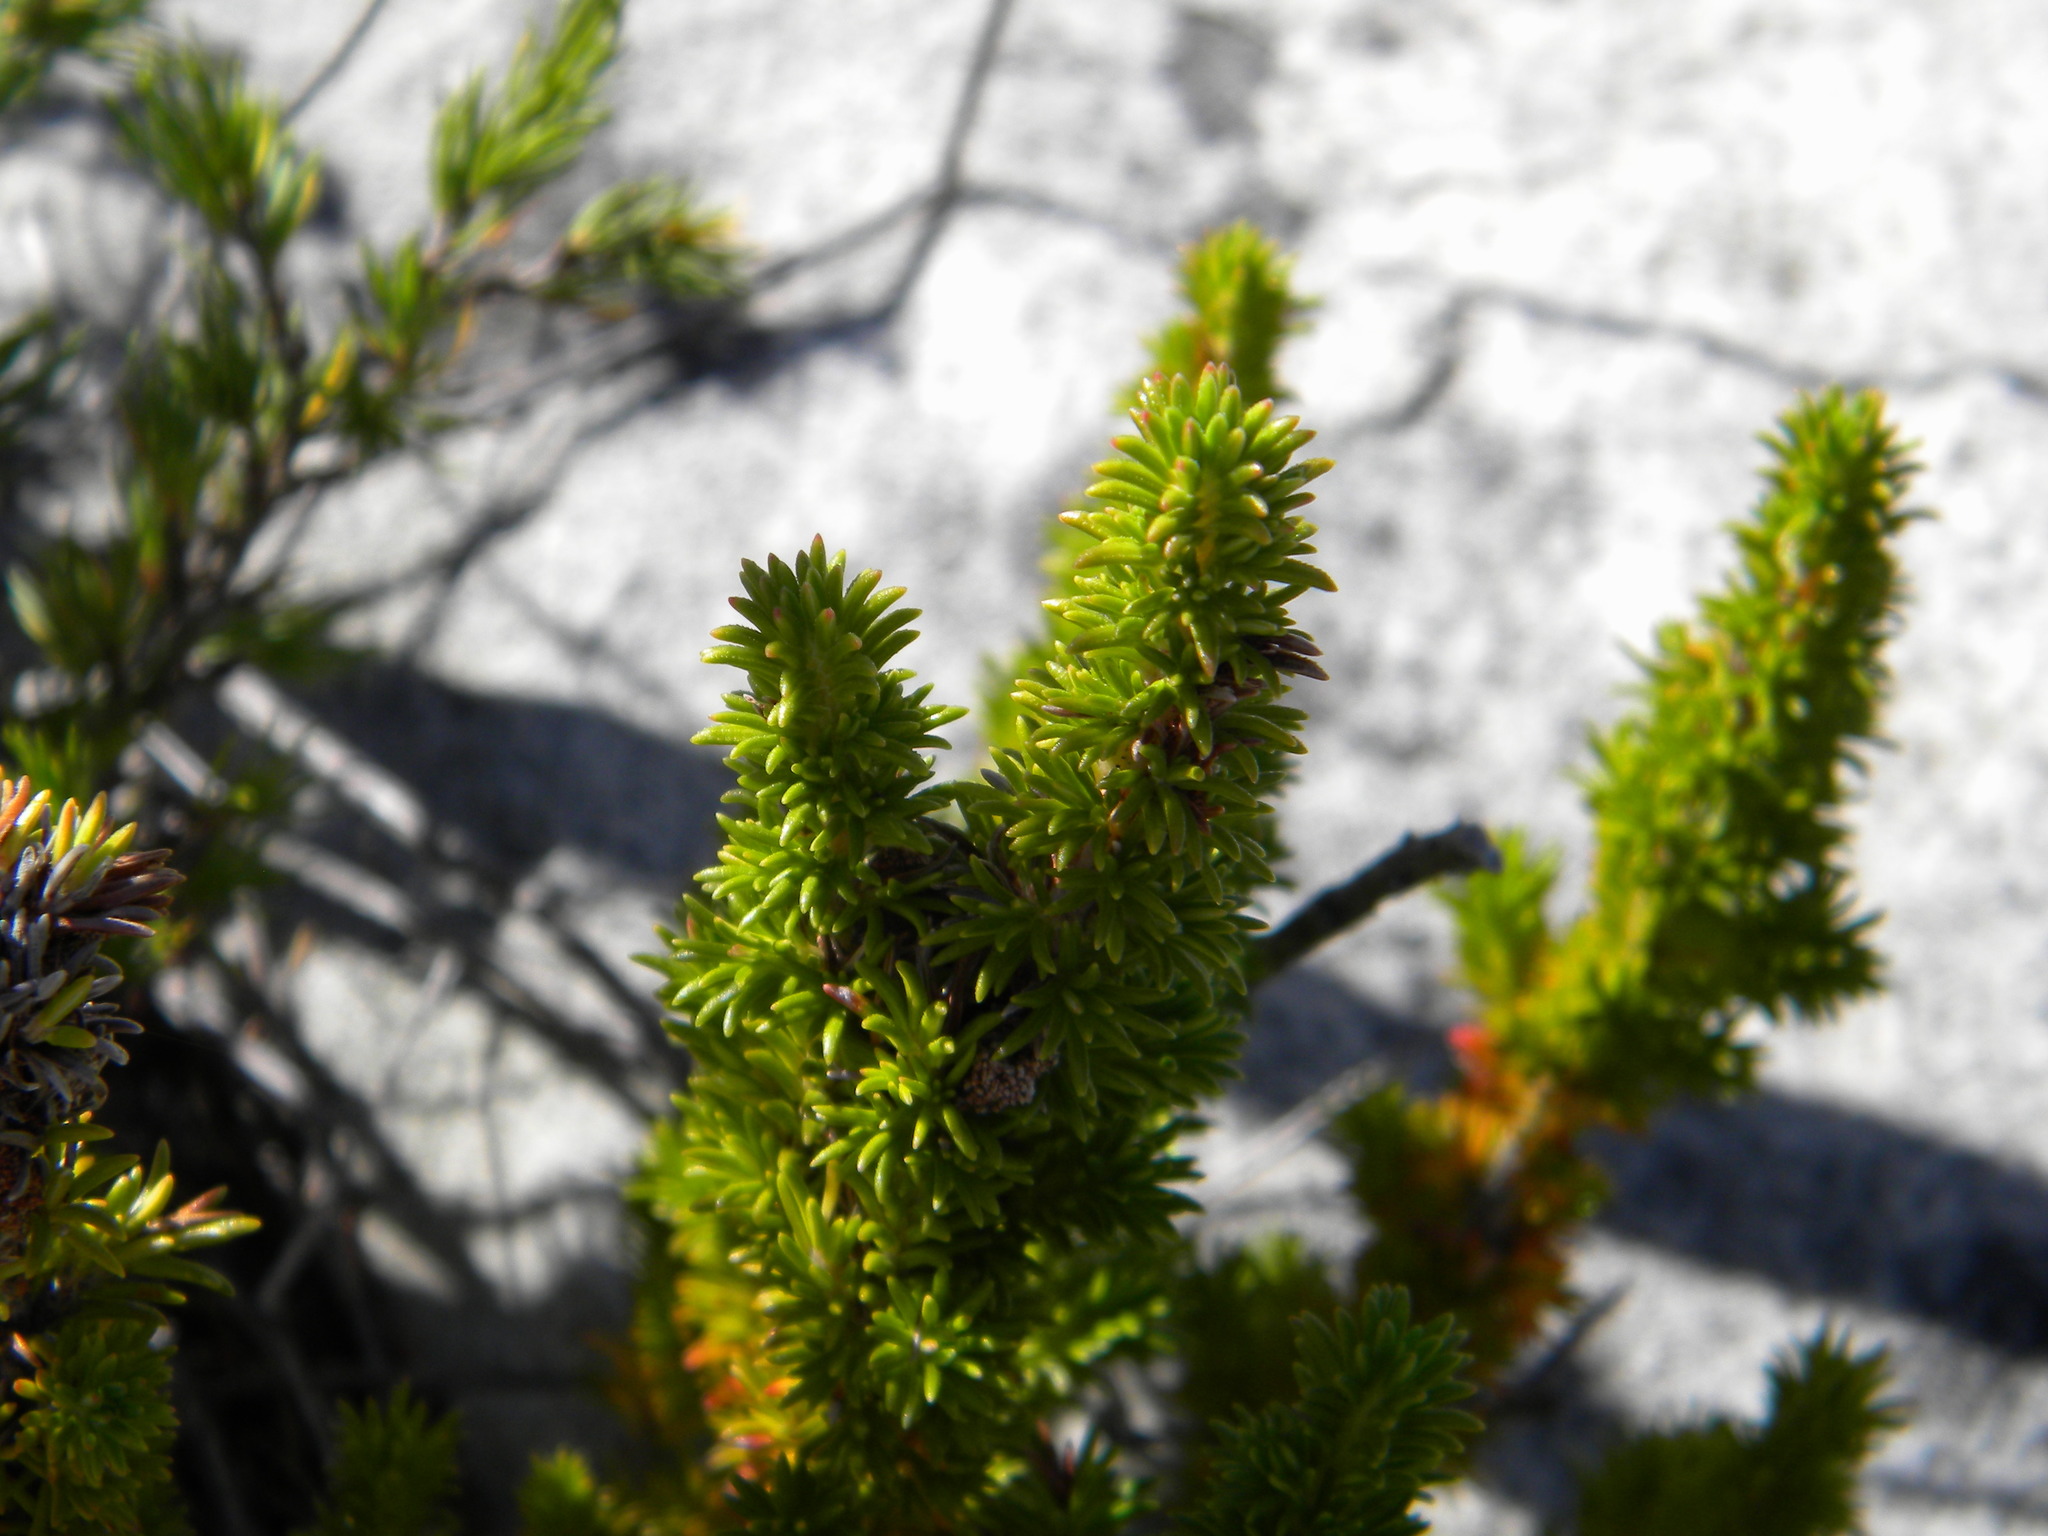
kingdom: Plantae
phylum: Tracheophyta
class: Magnoliopsida
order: Ericales
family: Ericaceae
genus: Erica
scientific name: Erica coccinea
